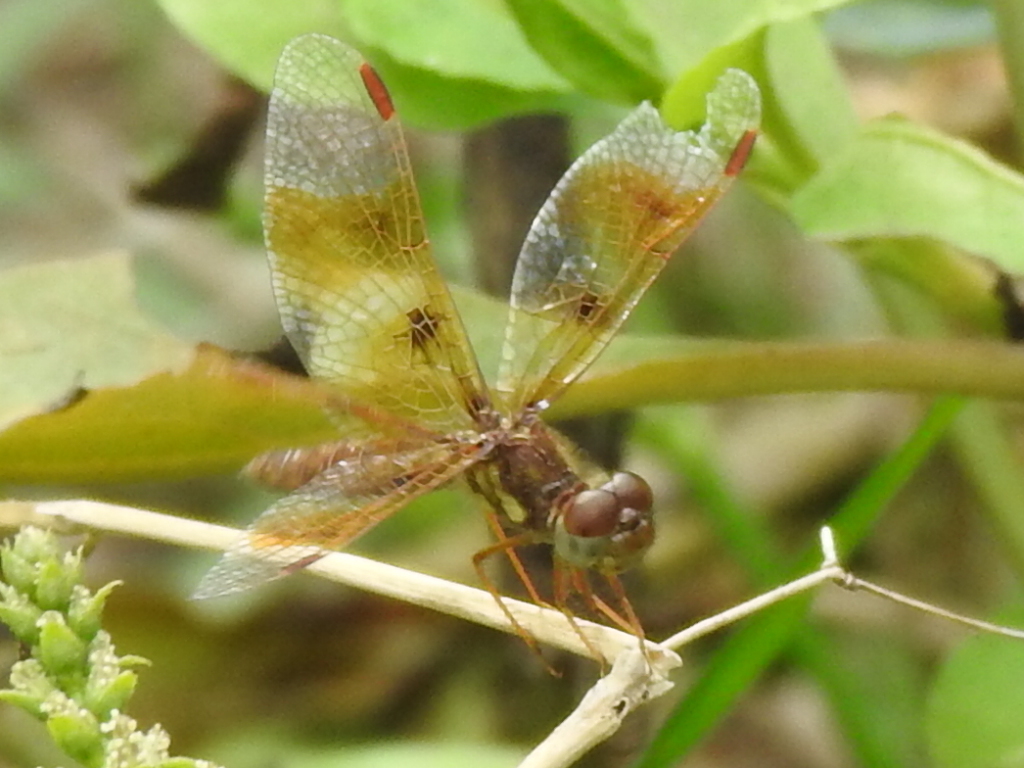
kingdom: Animalia
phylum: Arthropoda
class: Insecta
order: Odonata
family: Libellulidae
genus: Perithemis
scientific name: Perithemis tenera
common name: Eastern amberwing
